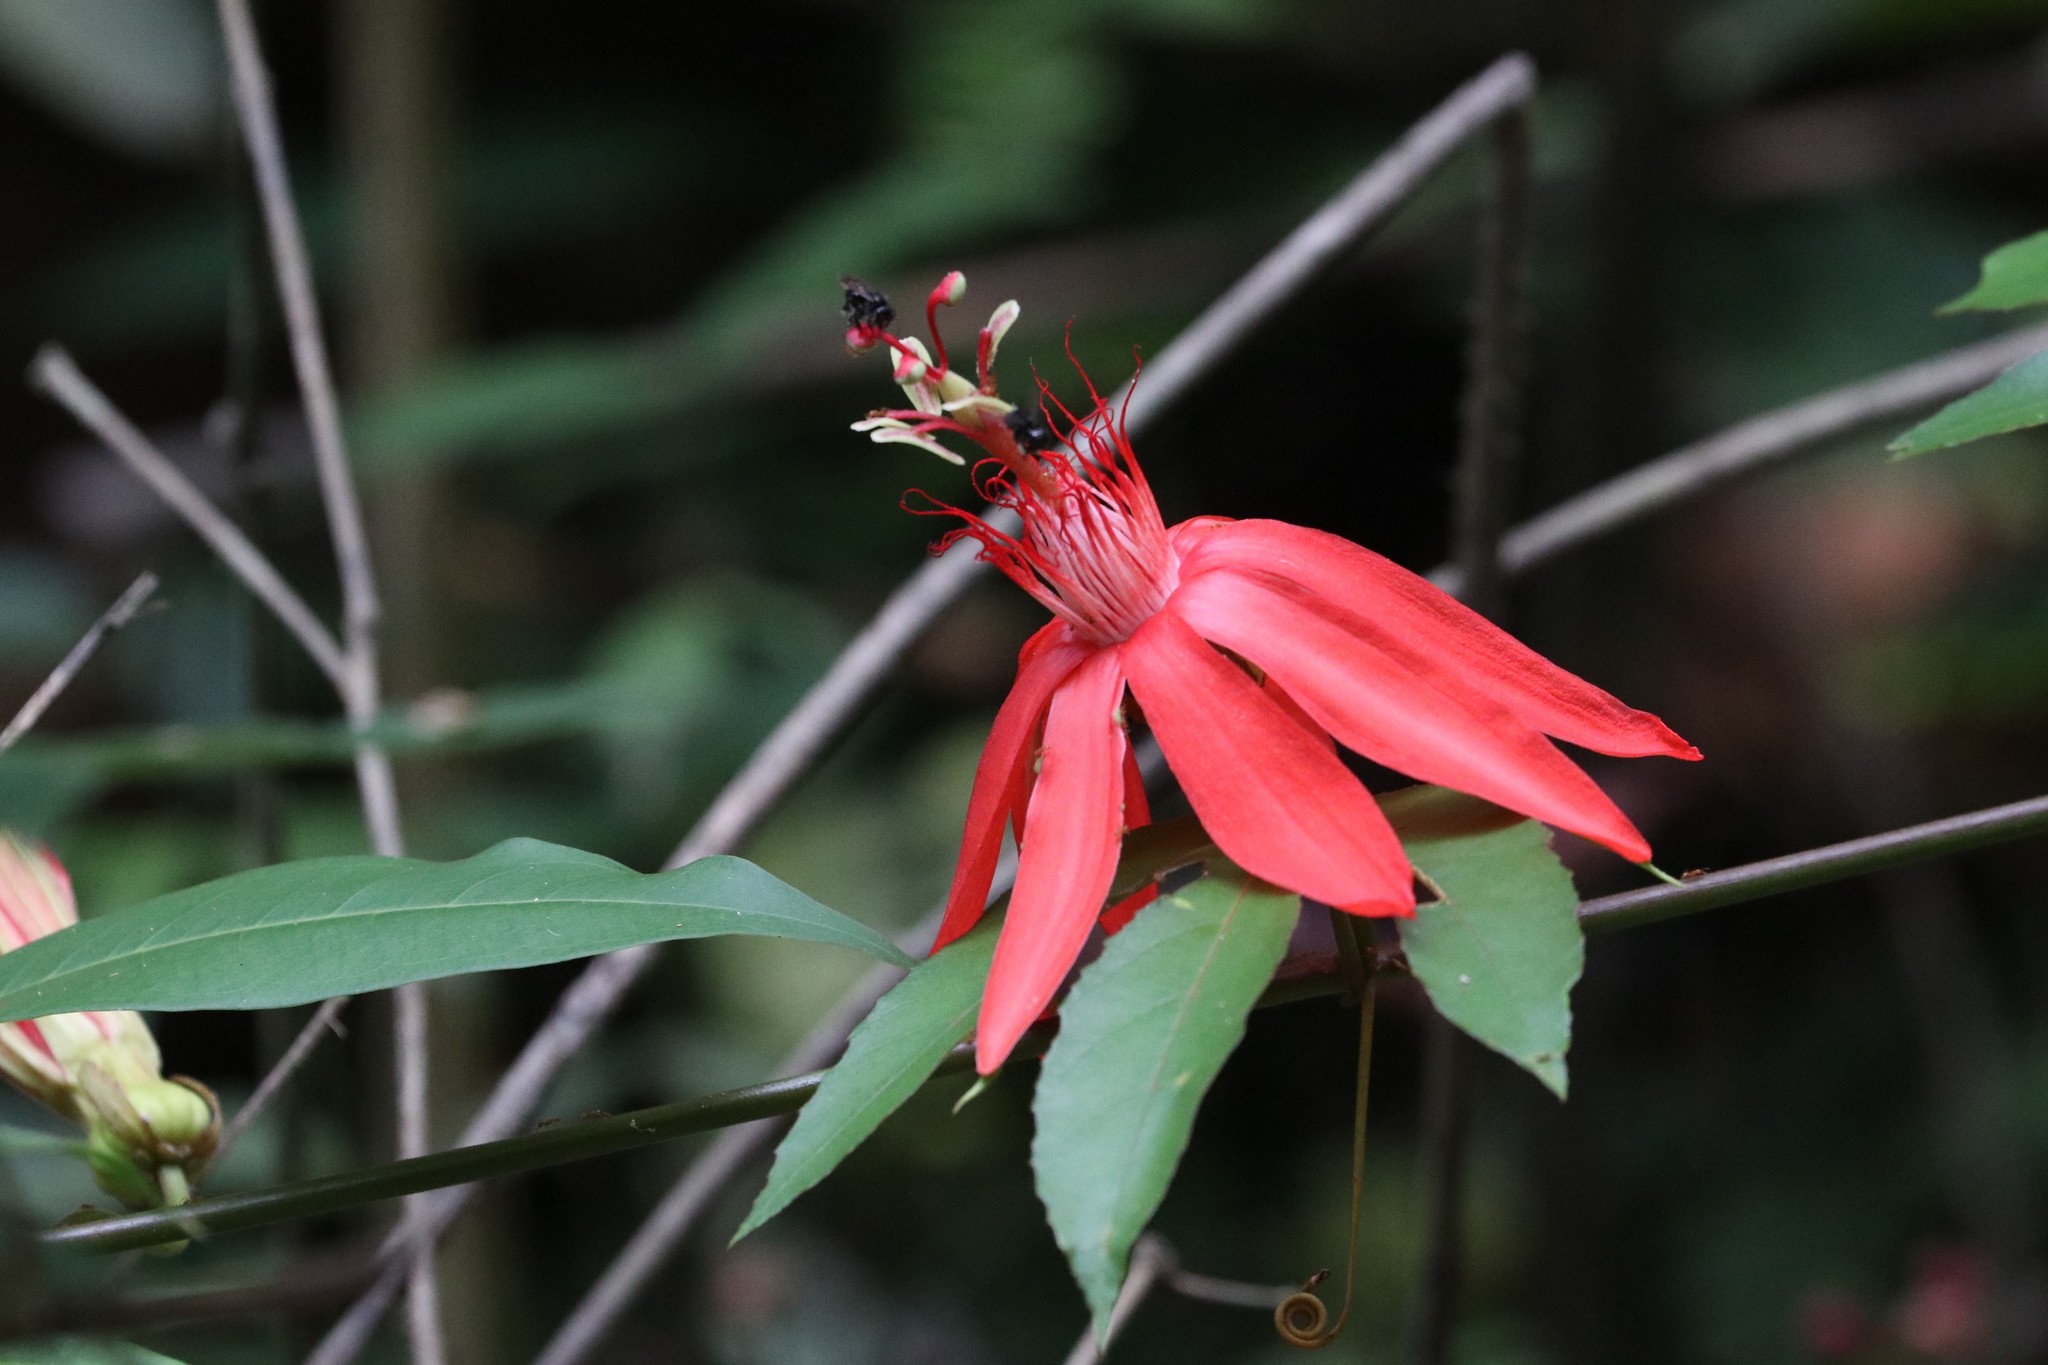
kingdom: Plantae
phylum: Tracheophyta
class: Magnoliopsida
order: Malpighiales
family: Passifloraceae
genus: Passiflora
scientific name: Passiflora quadriglandulosa
